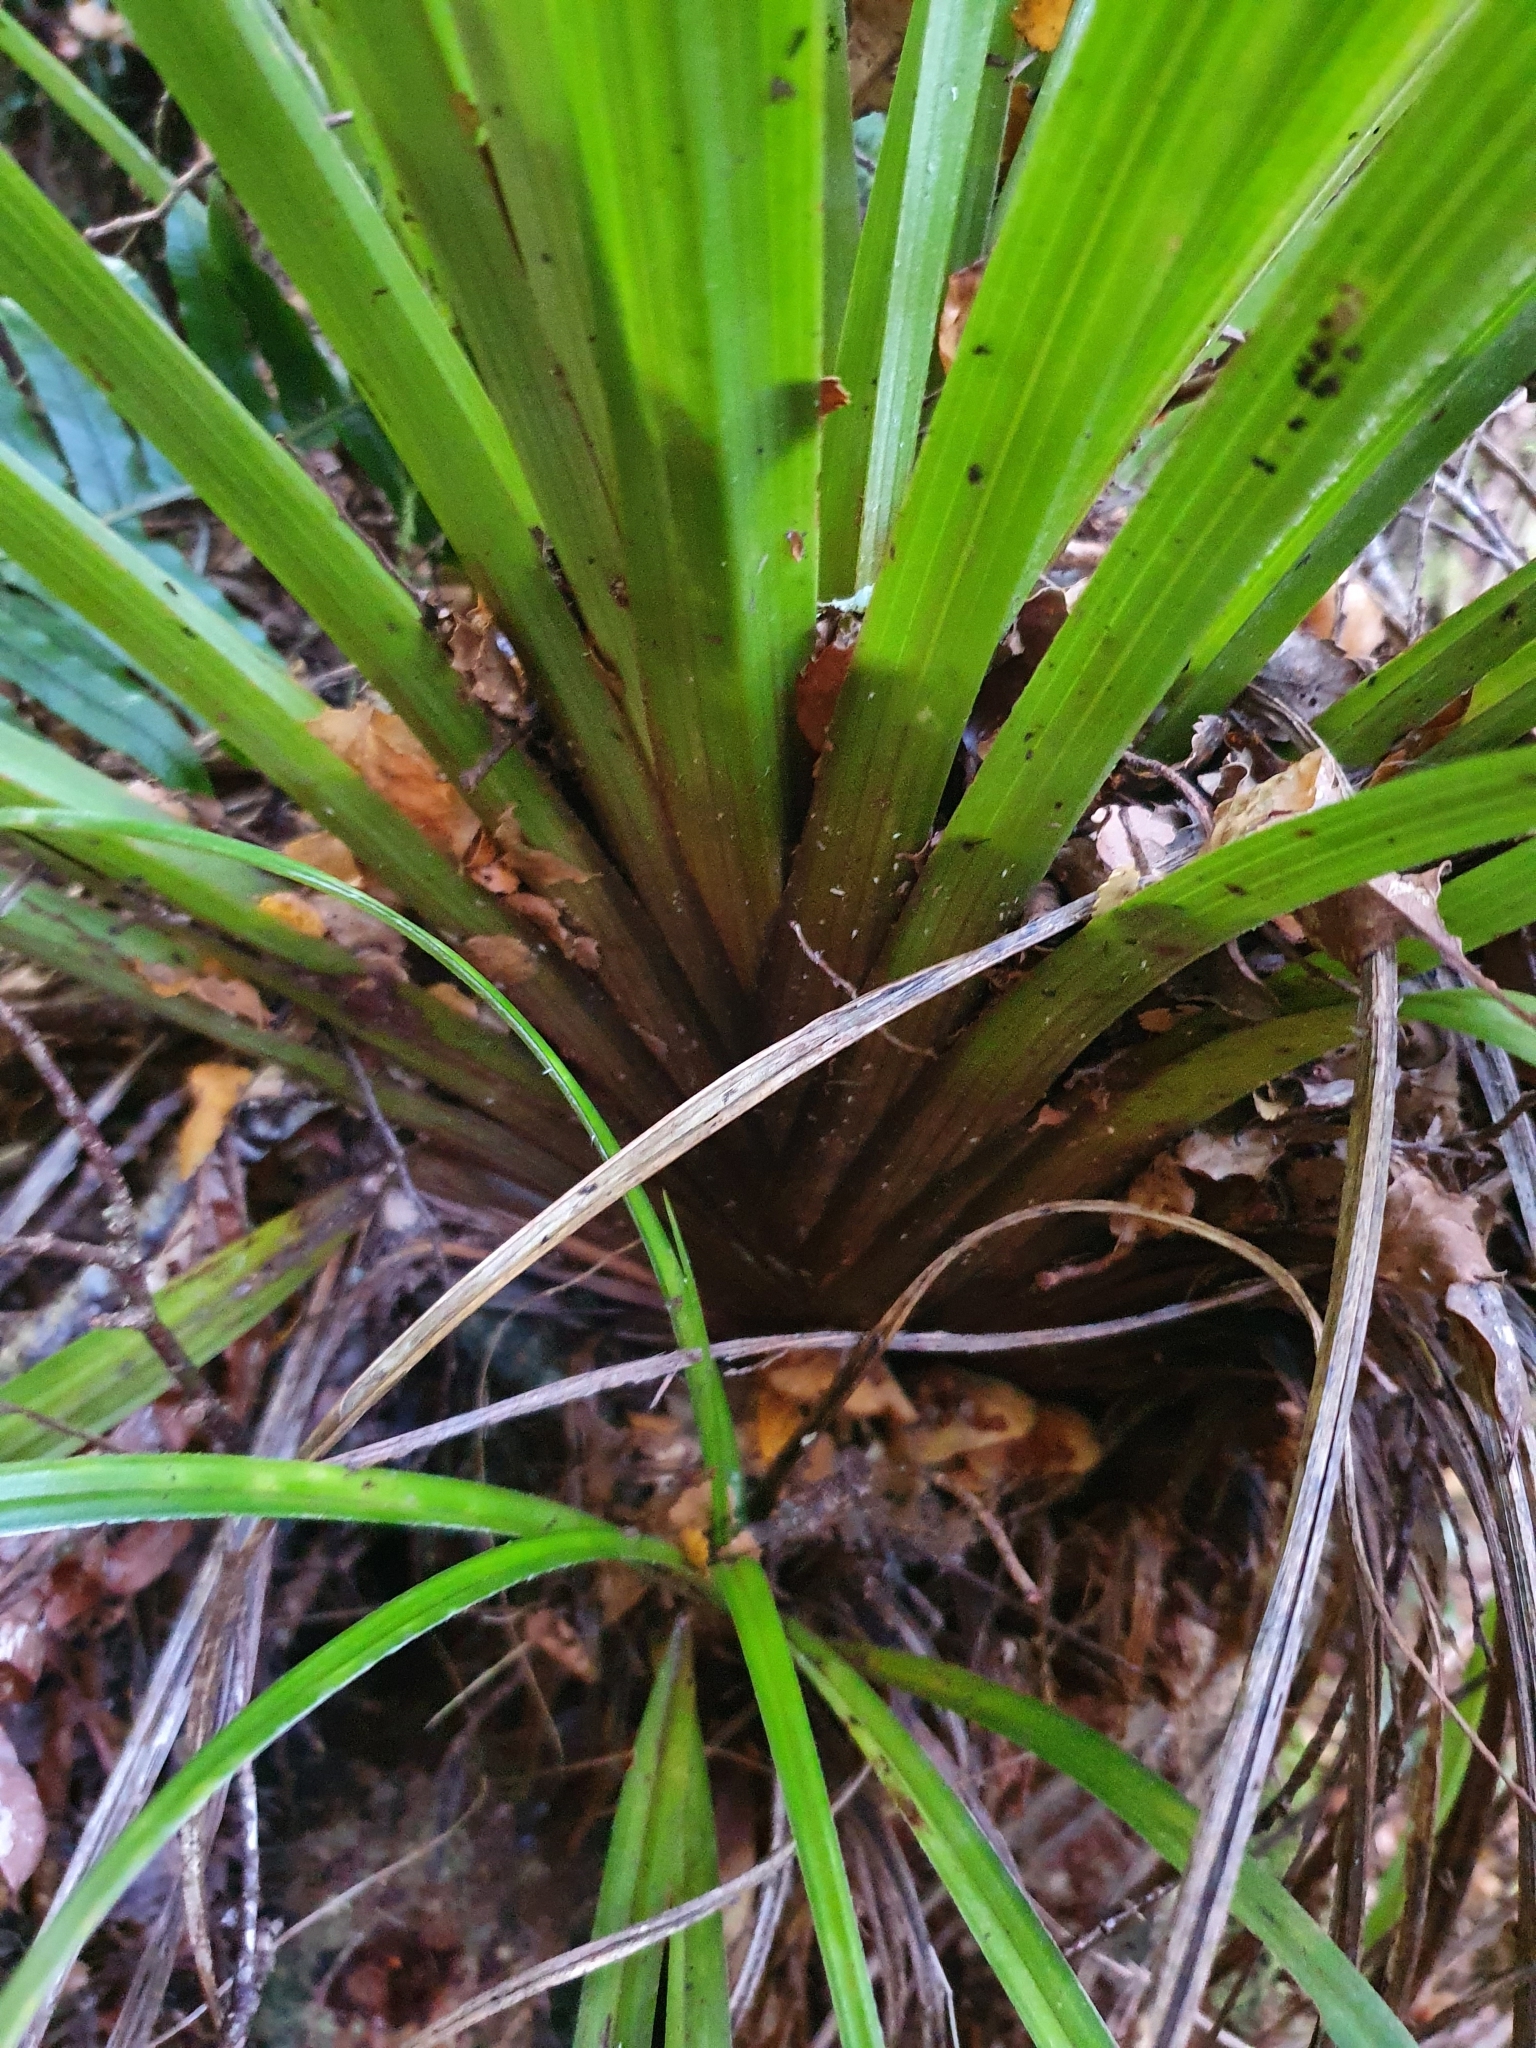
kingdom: Plantae
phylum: Tracheophyta
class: Liliopsida
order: Asparagales
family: Asteliaceae
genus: Astelia
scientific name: Astelia hastata
